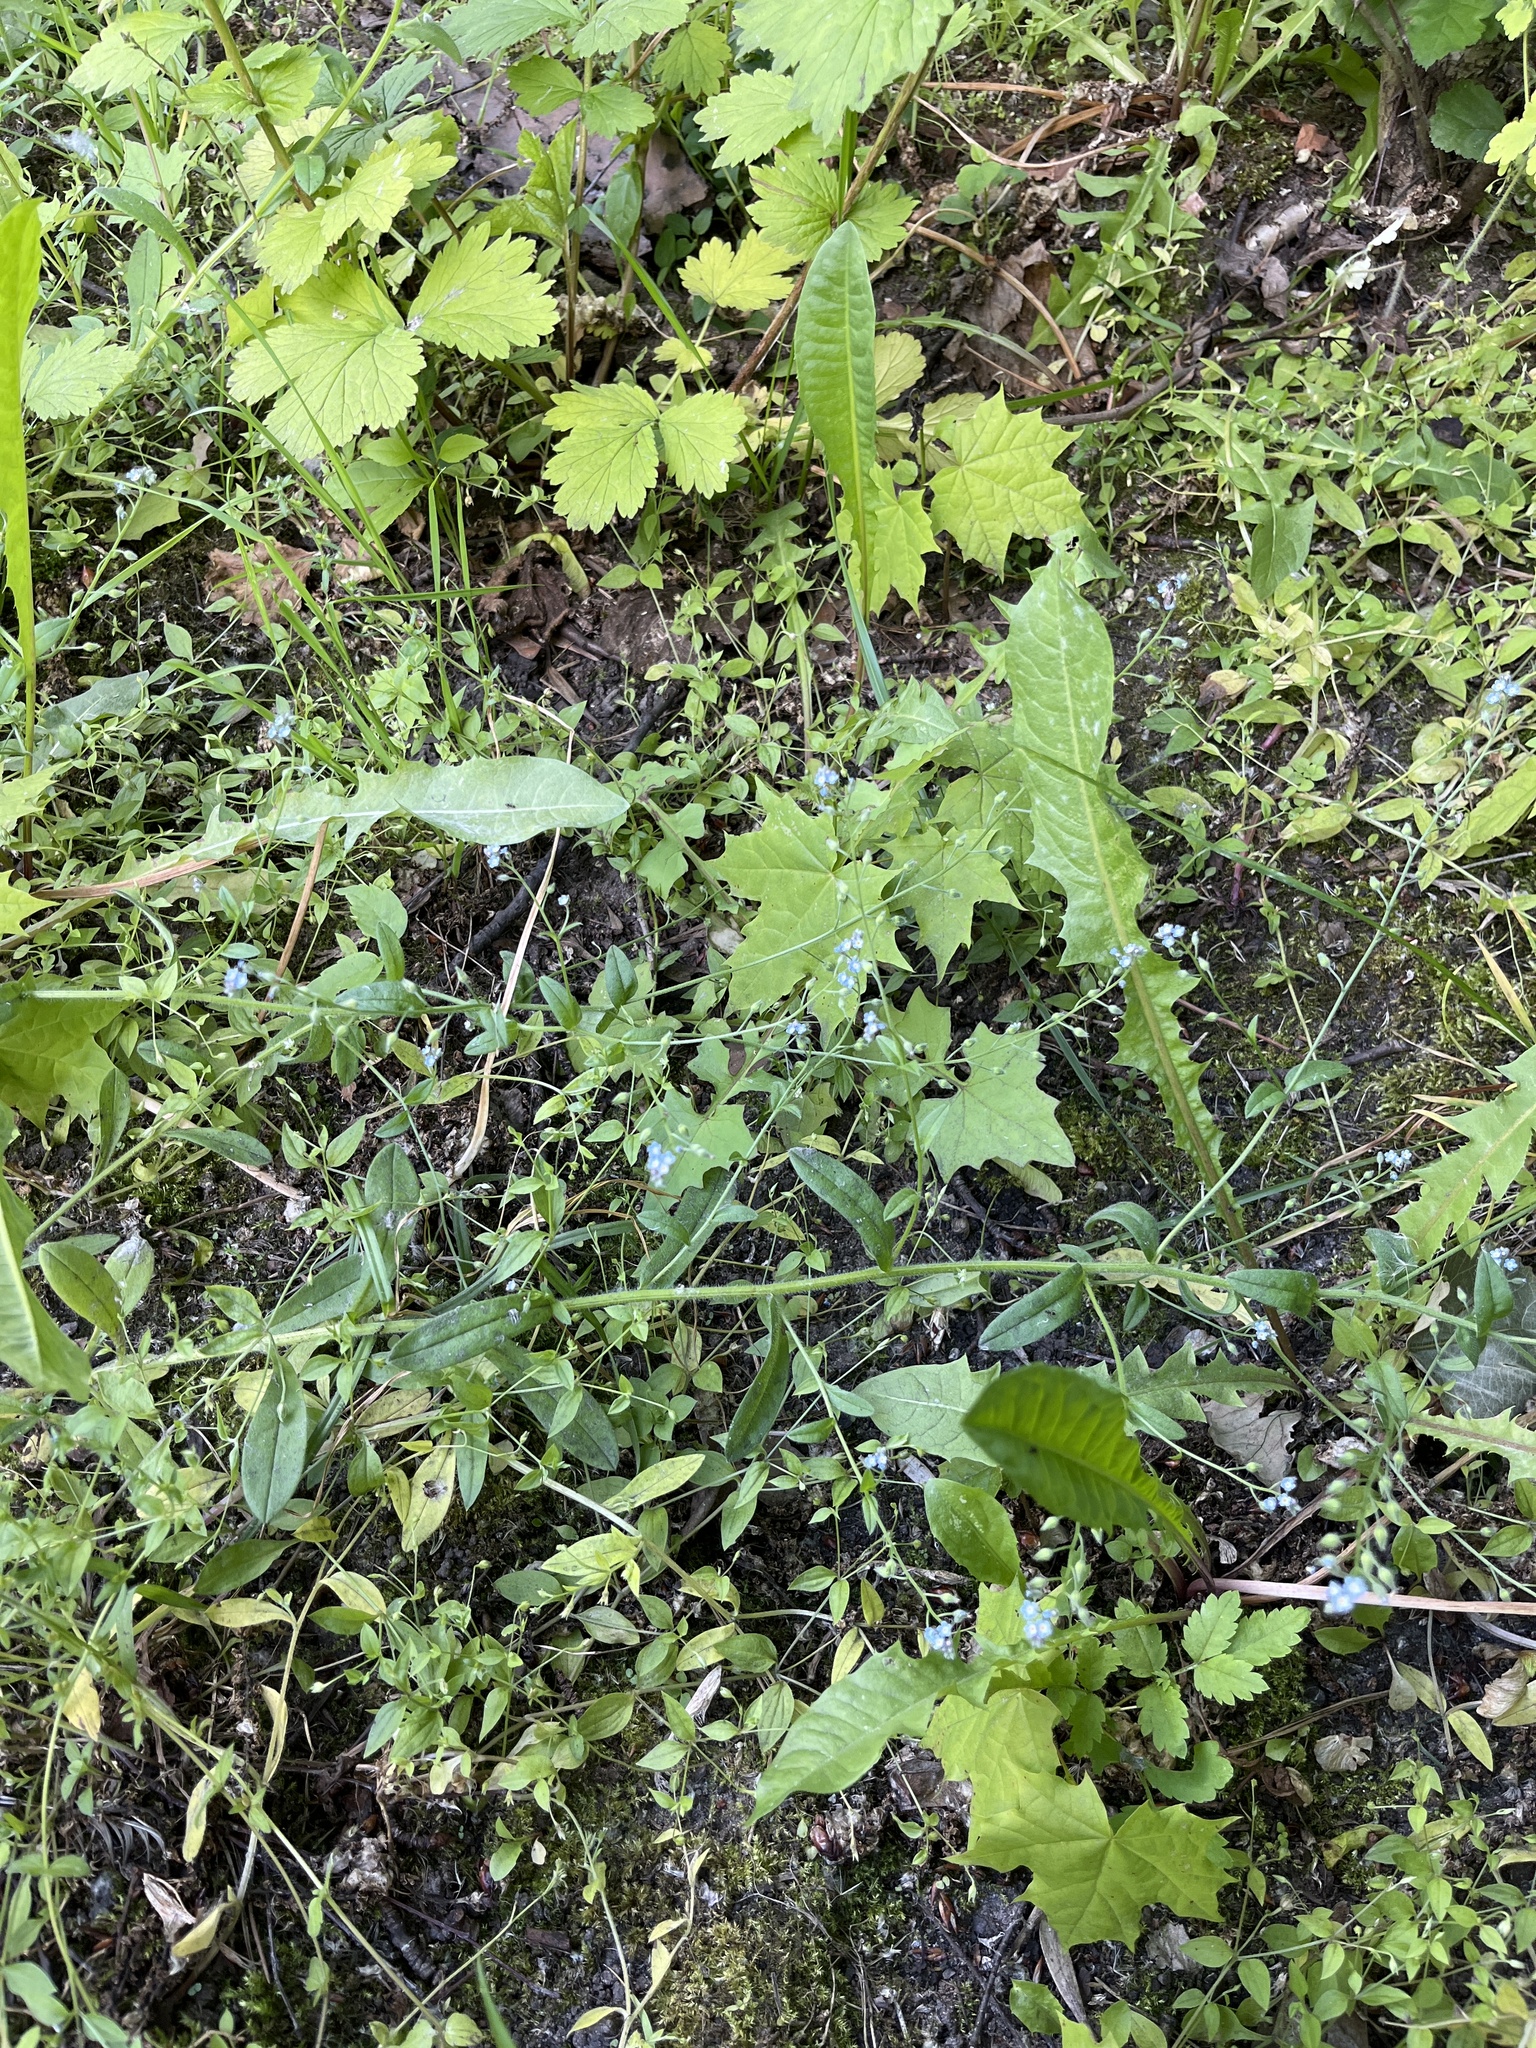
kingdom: Plantae
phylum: Tracheophyta
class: Magnoliopsida
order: Boraginales
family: Boraginaceae
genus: Myosotis
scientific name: Myosotis arvensis
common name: Field forget-me-not
